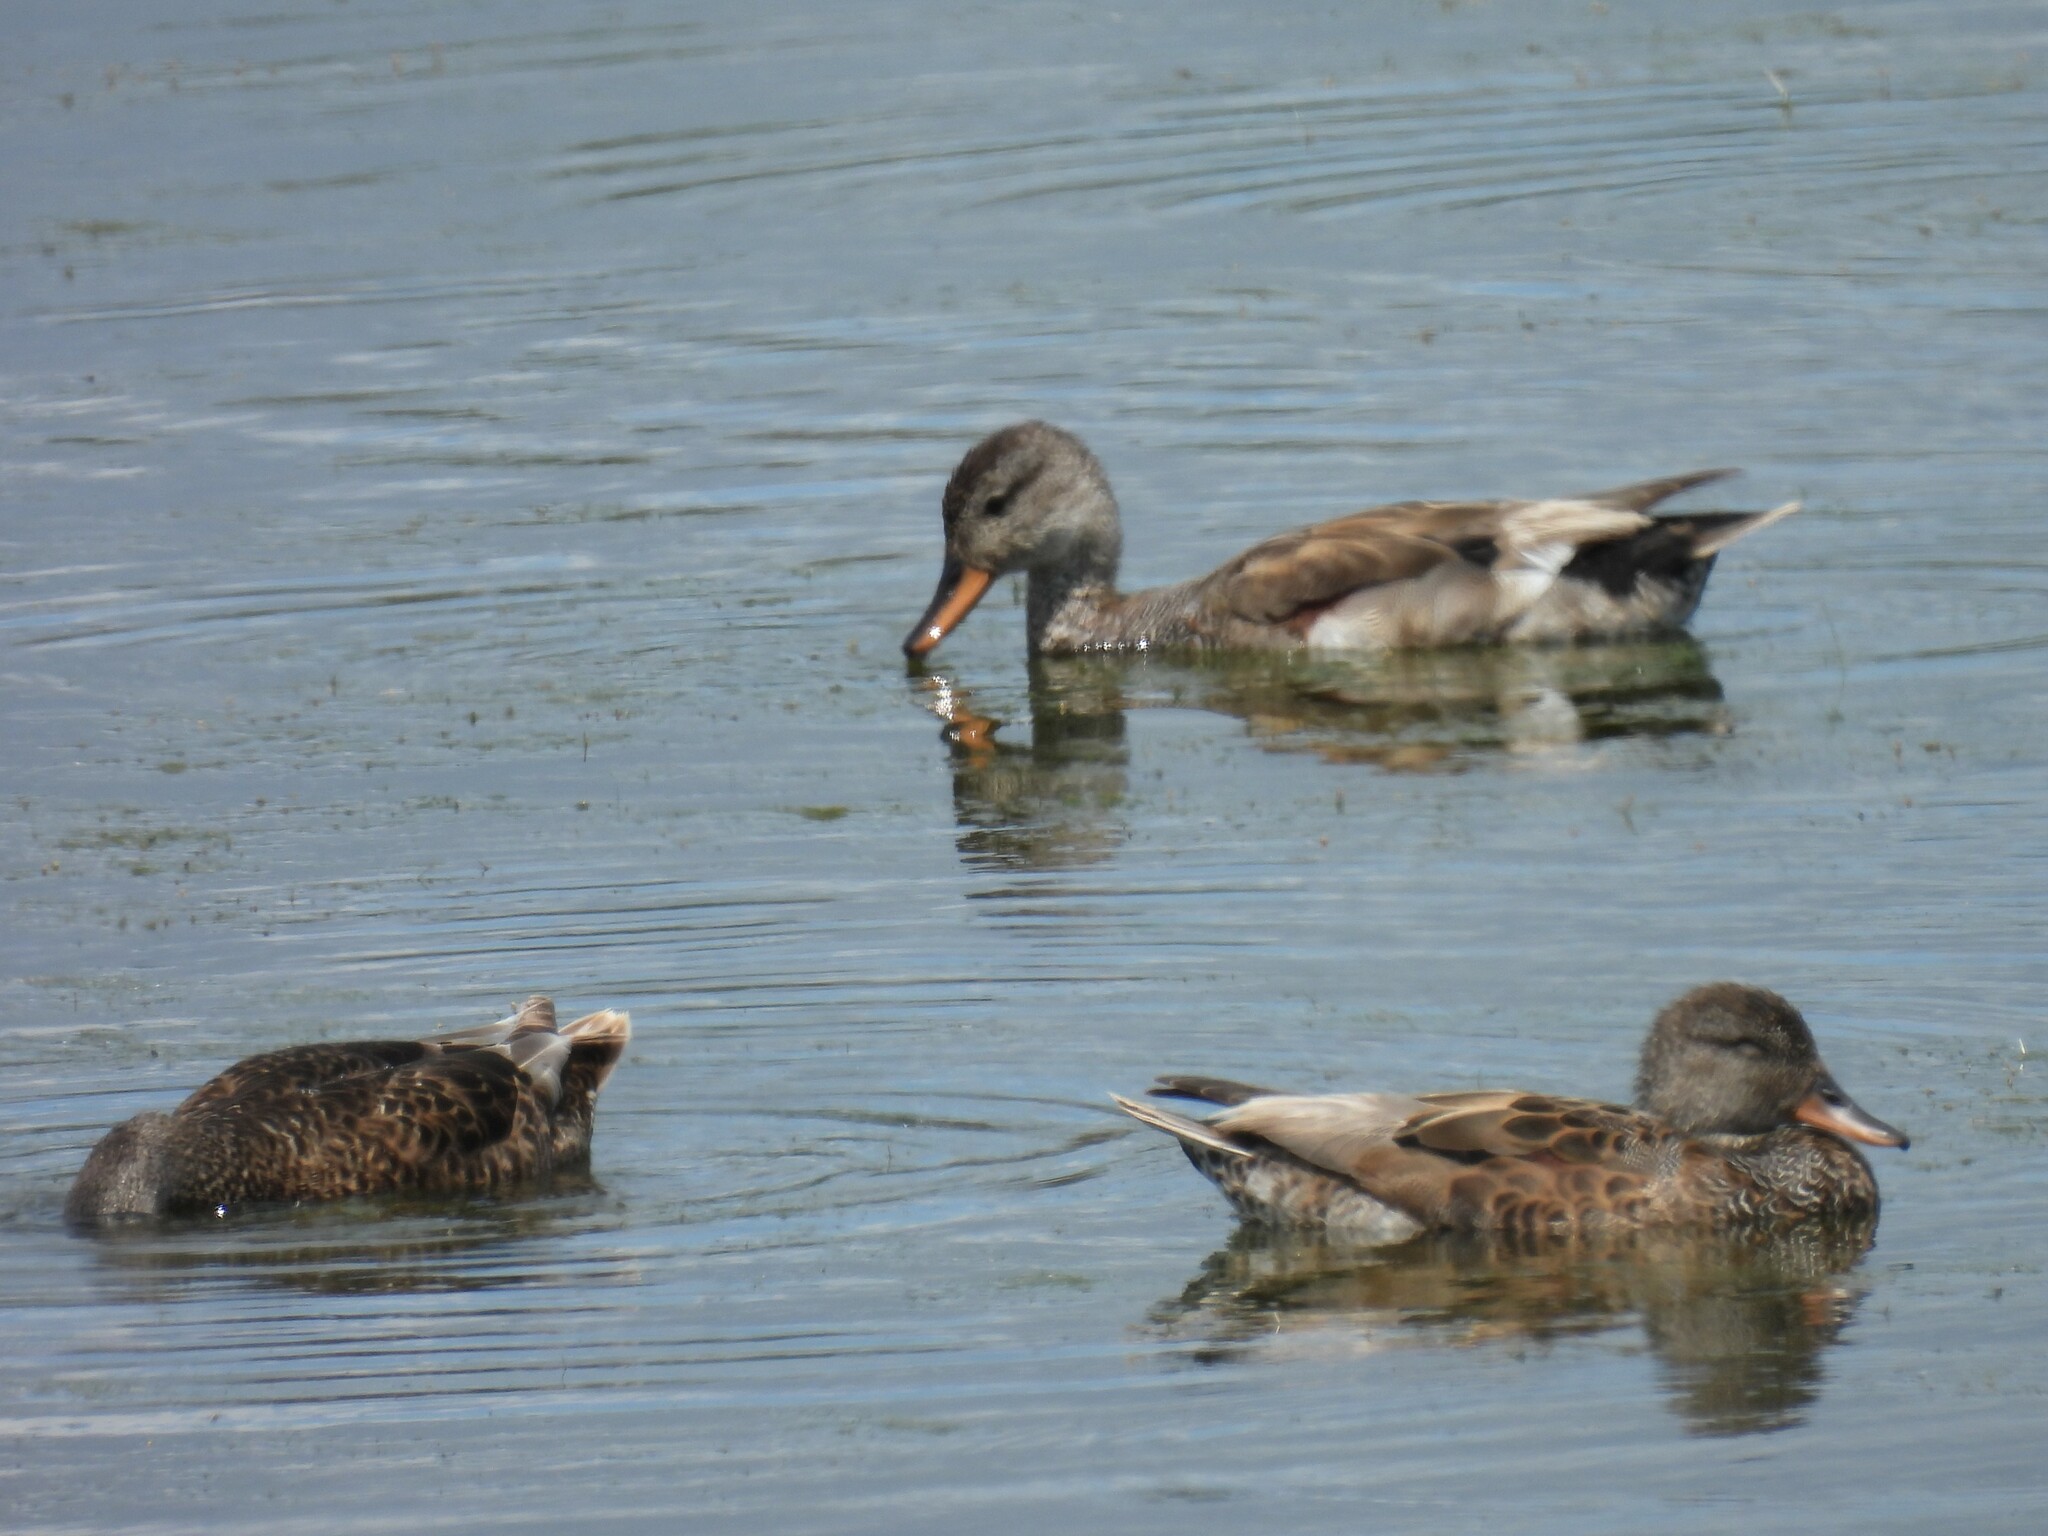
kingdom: Animalia
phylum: Chordata
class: Aves
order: Anseriformes
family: Anatidae
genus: Mareca
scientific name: Mareca strepera
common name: Gadwall
